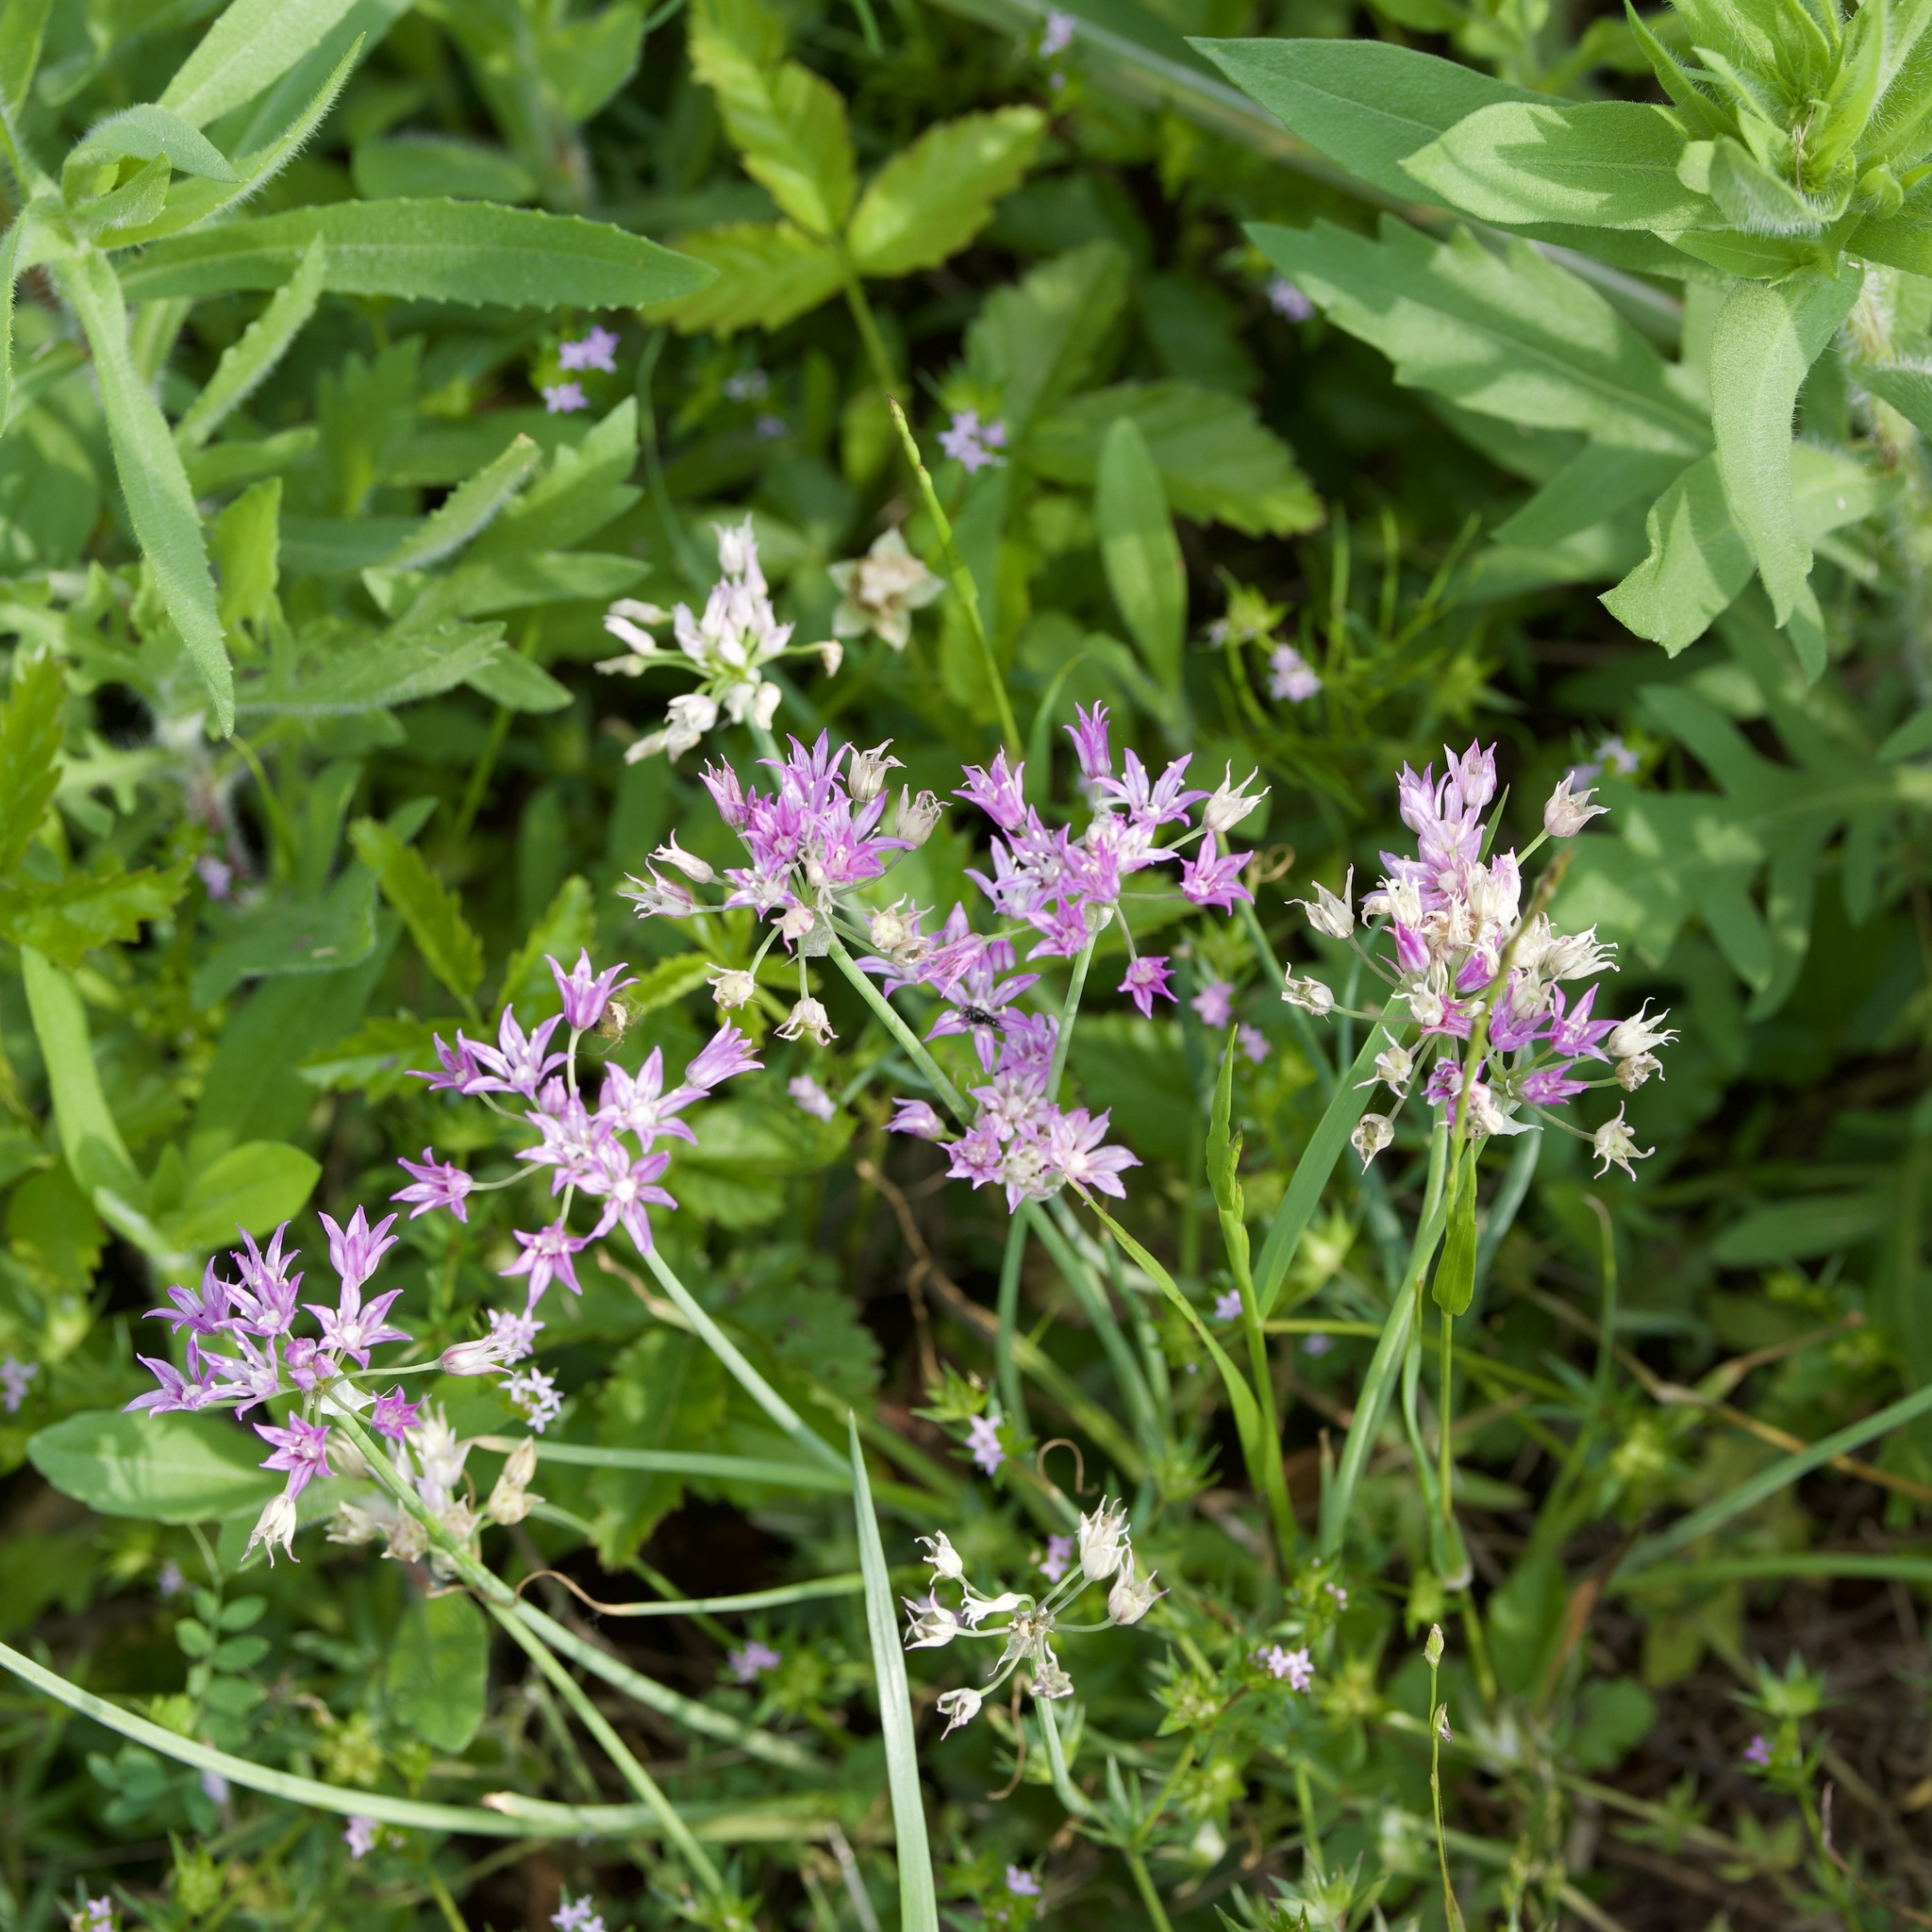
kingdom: Plantae
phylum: Tracheophyta
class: Liliopsida
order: Asparagales
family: Amaryllidaceae
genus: Allium
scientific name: Allium drummondii
